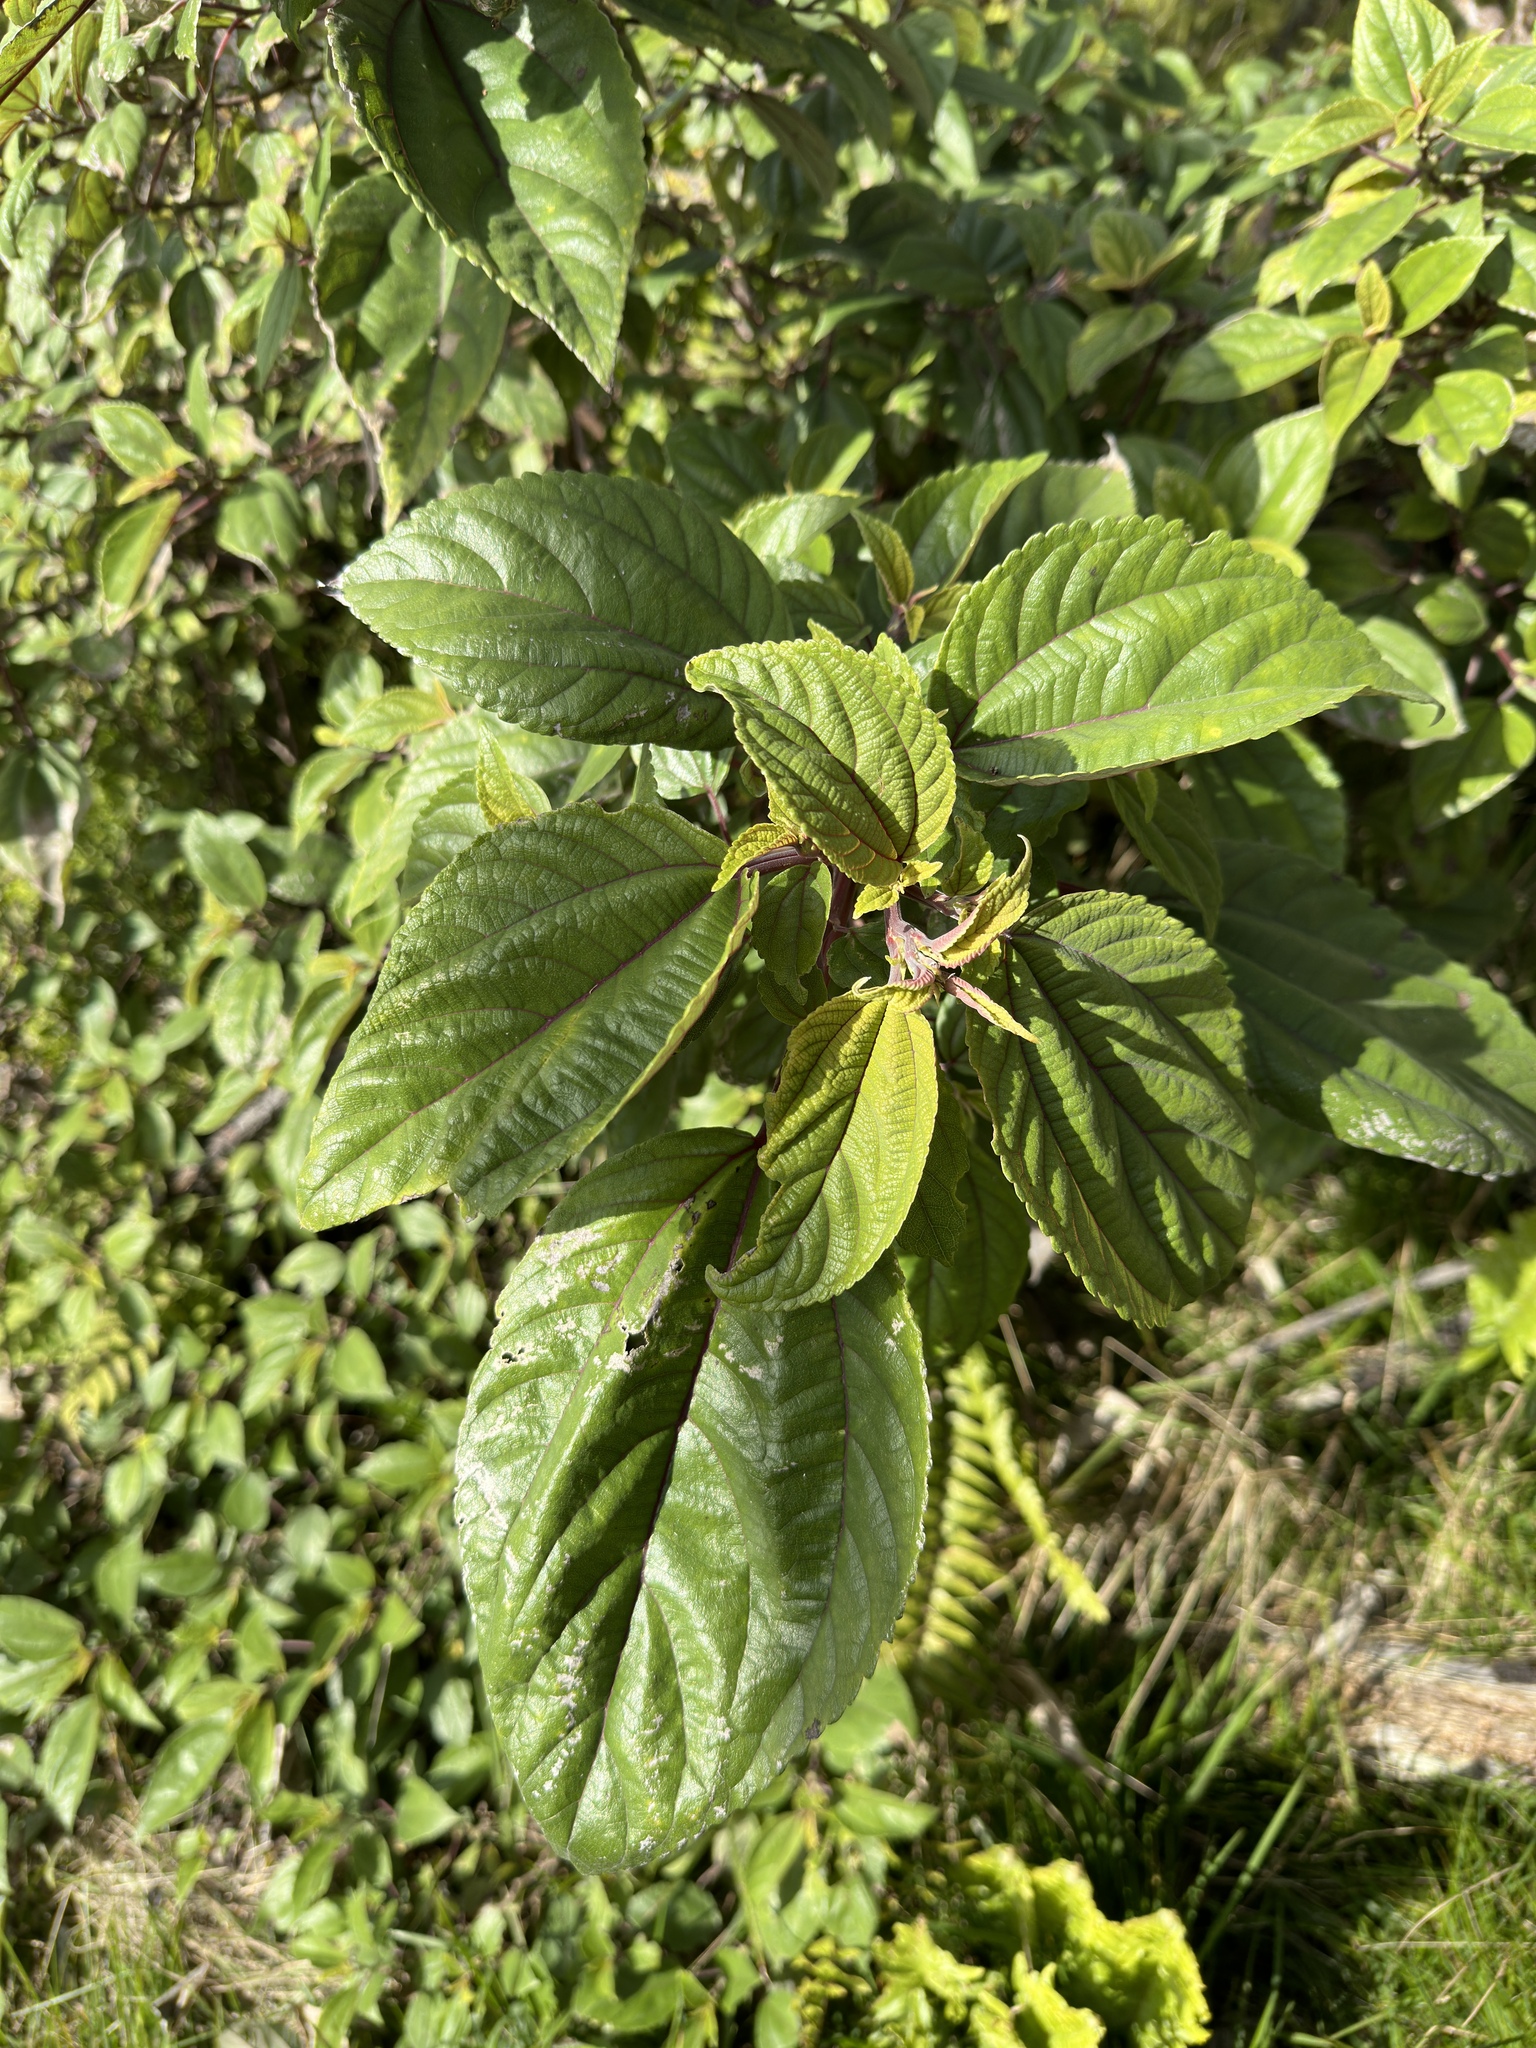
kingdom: Plantae
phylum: Tracheophyta
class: Magnoliopsida
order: Rosales
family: Urticaceae
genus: Pipturus
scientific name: Pipturus albidus
